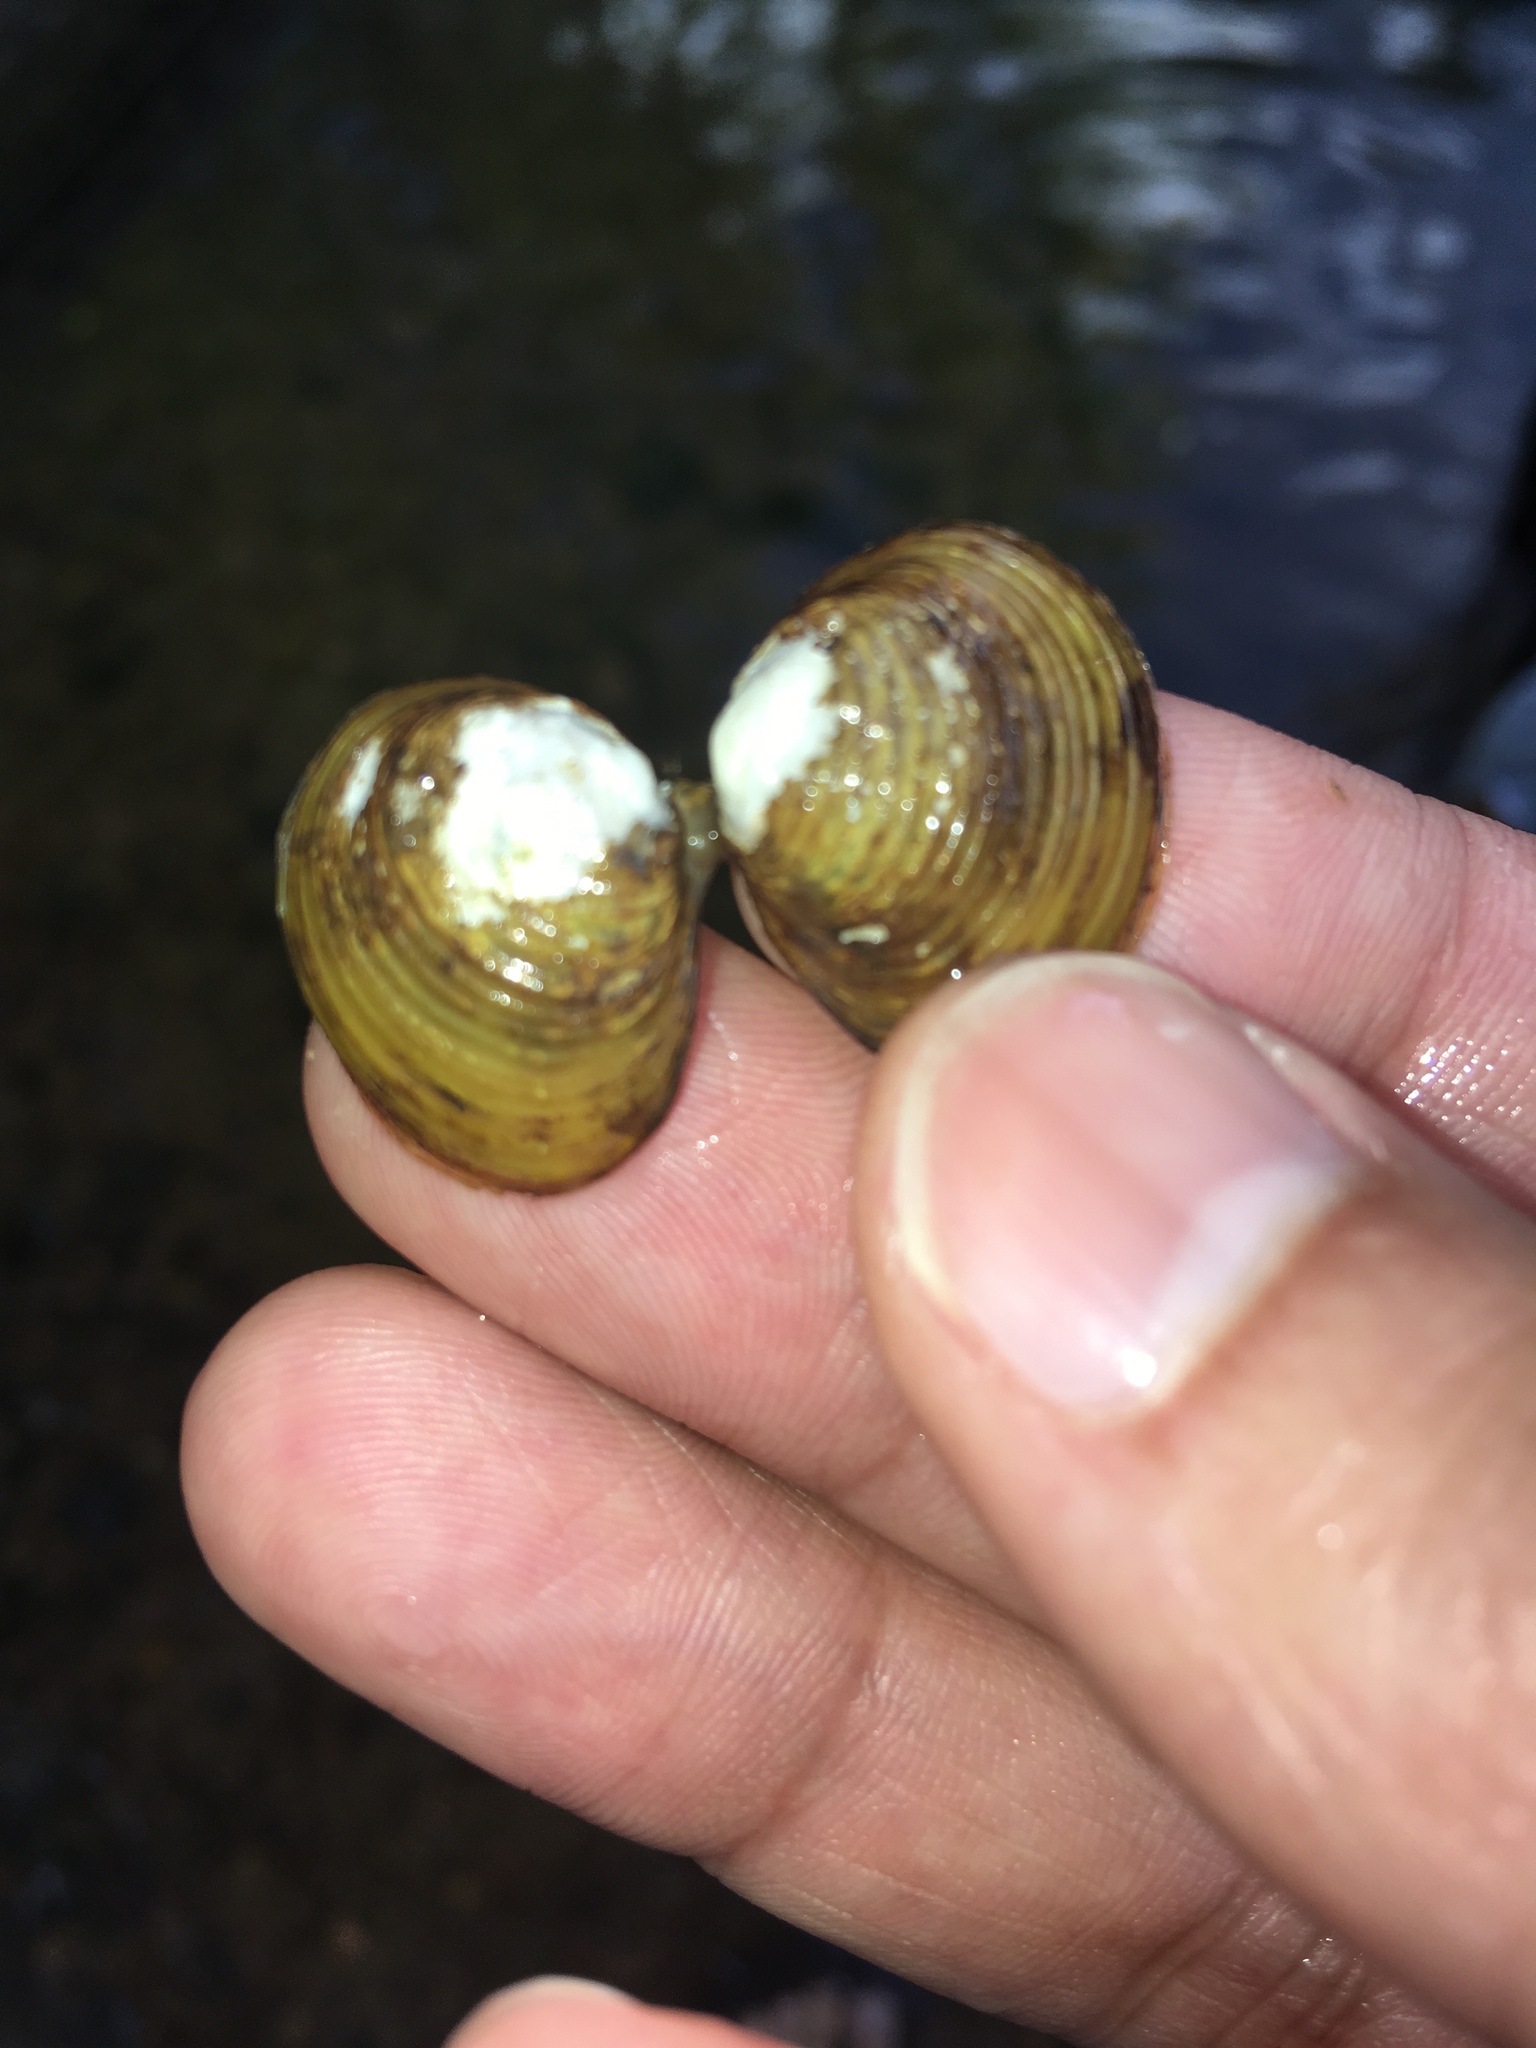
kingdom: Animalia
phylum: Mollusca
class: Bivalvia
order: Venerida
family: Cyrenidae
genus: Corbicula
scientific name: Corbicula fluminea
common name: Asian clam
